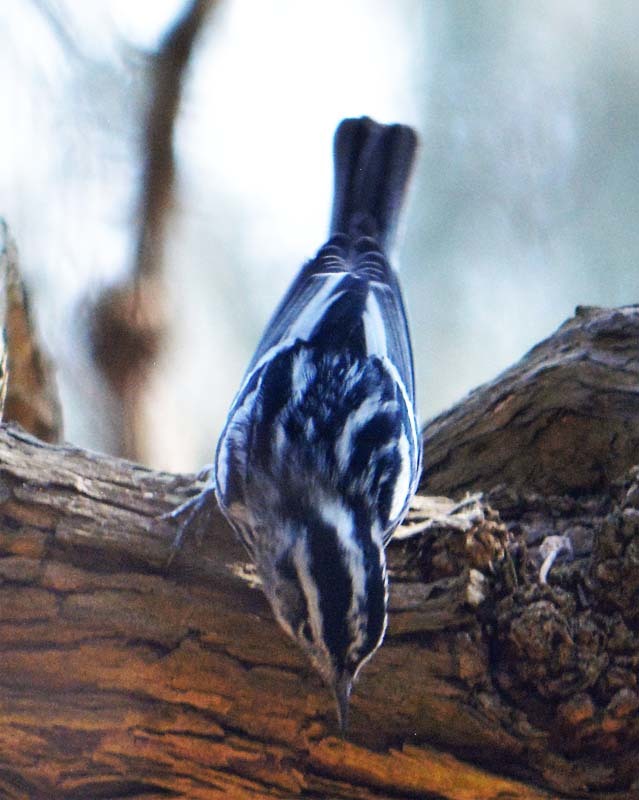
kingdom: Animalia
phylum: Chordata
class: Aves
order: Passeriformes
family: Parulidae
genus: Mniotilta
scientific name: Mniotilta varia
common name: Black-and-white warbler
